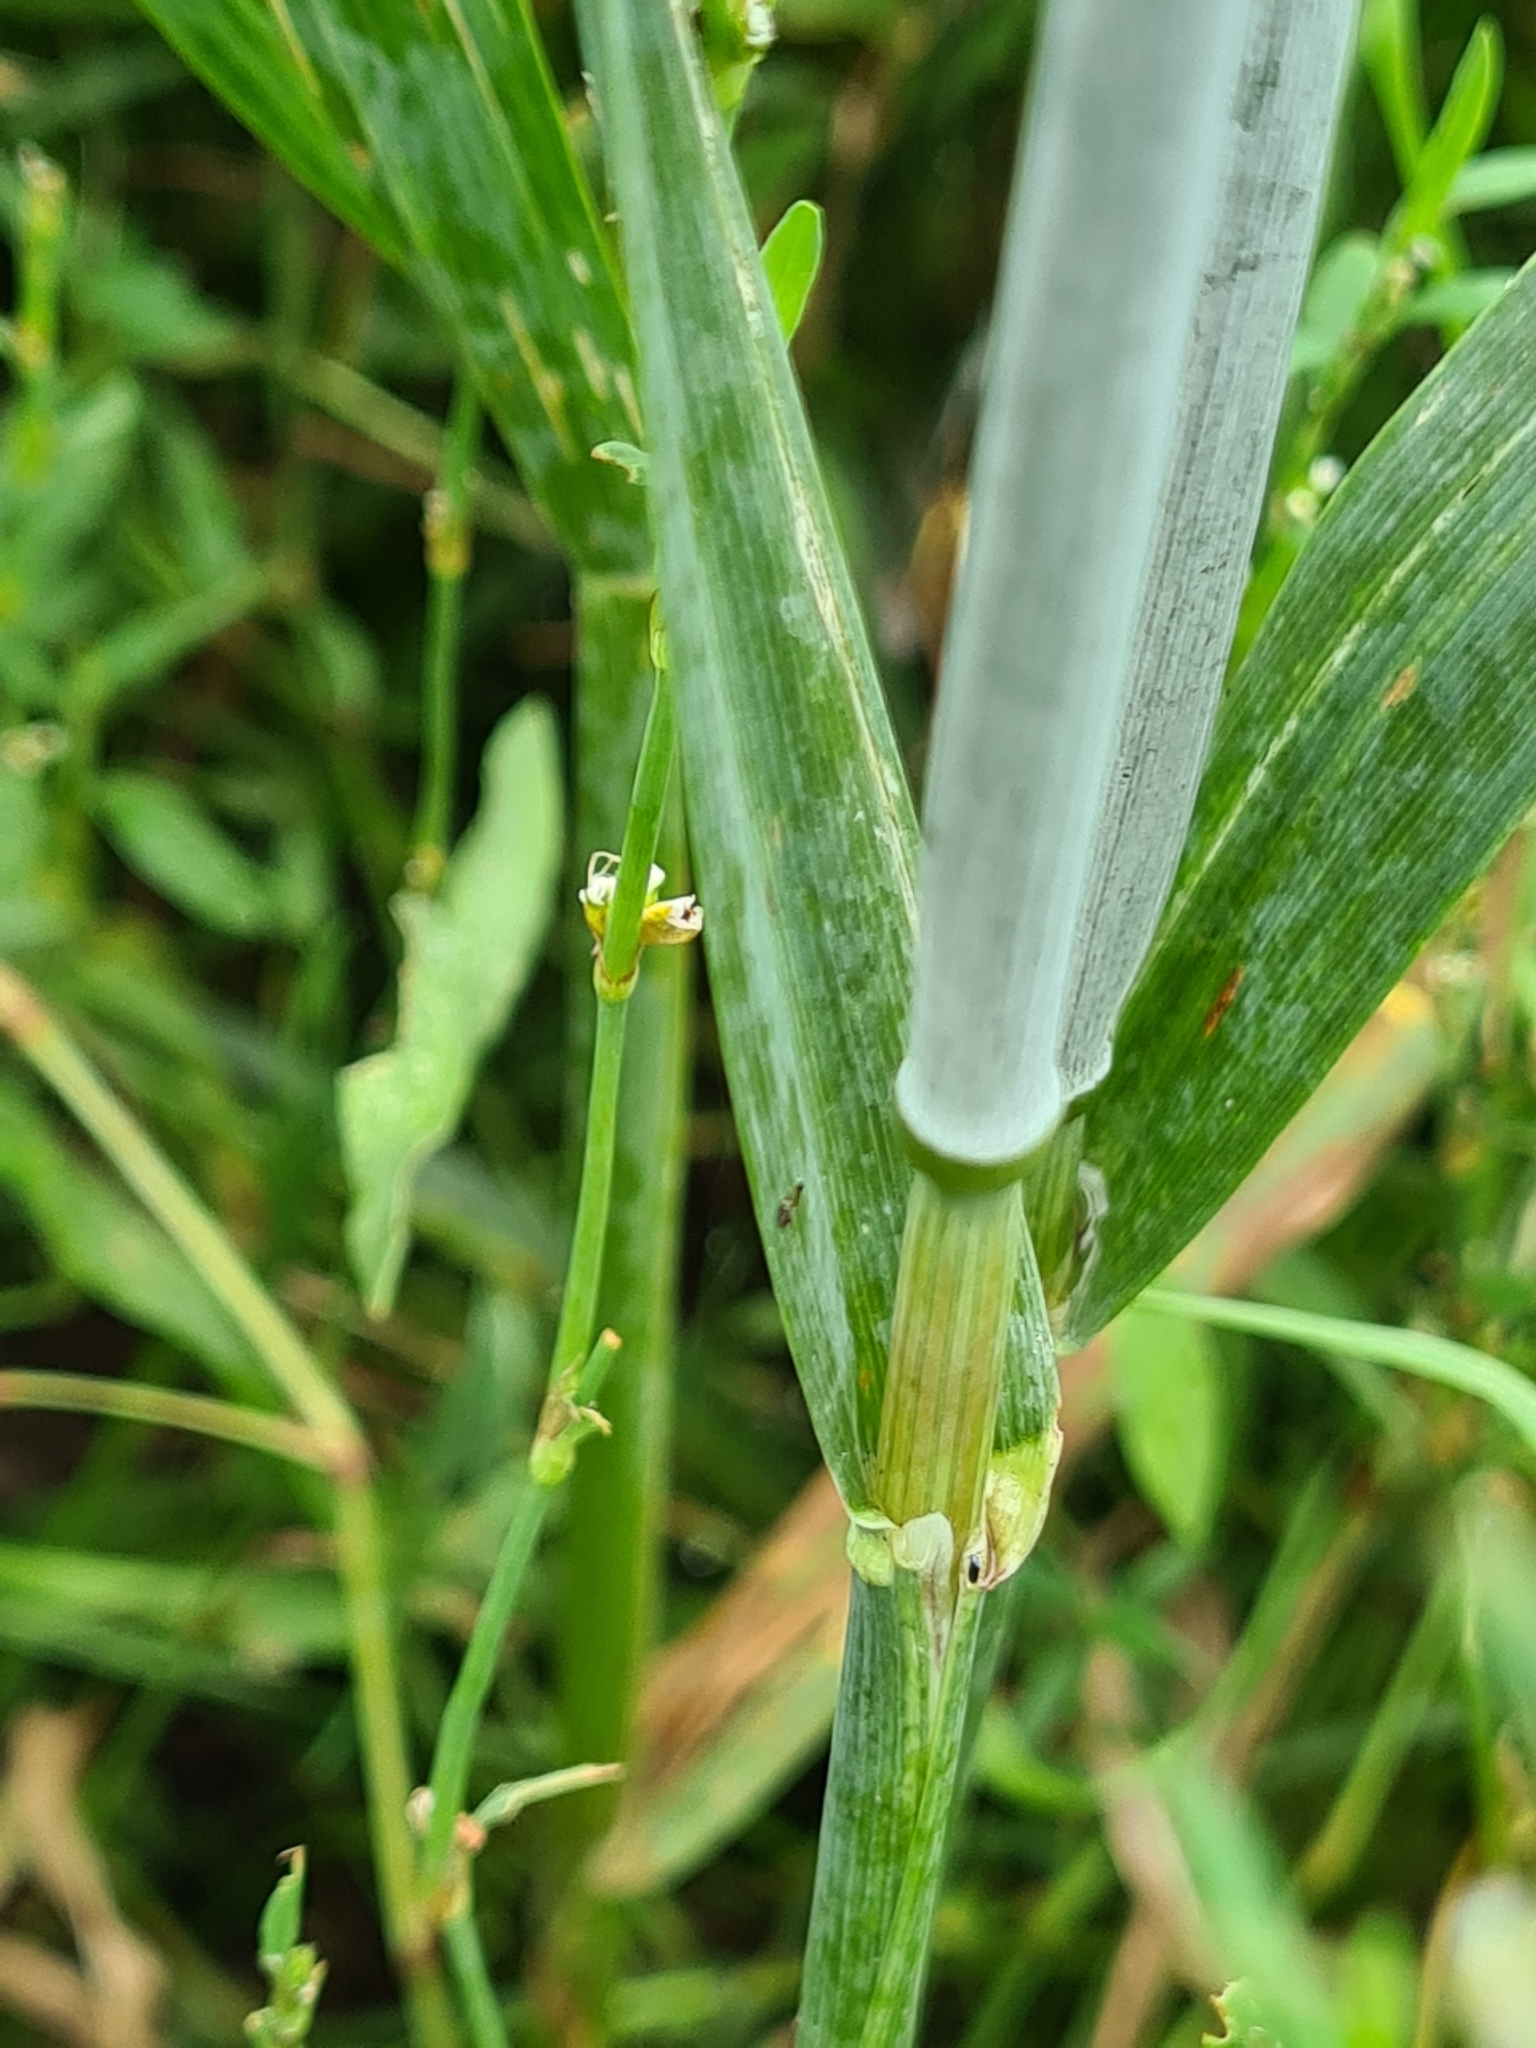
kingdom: Plantae
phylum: Tracheophyta
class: Liliopsida
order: Poales
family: Poaceae
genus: Avena
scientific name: Avena sativa
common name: Oat
